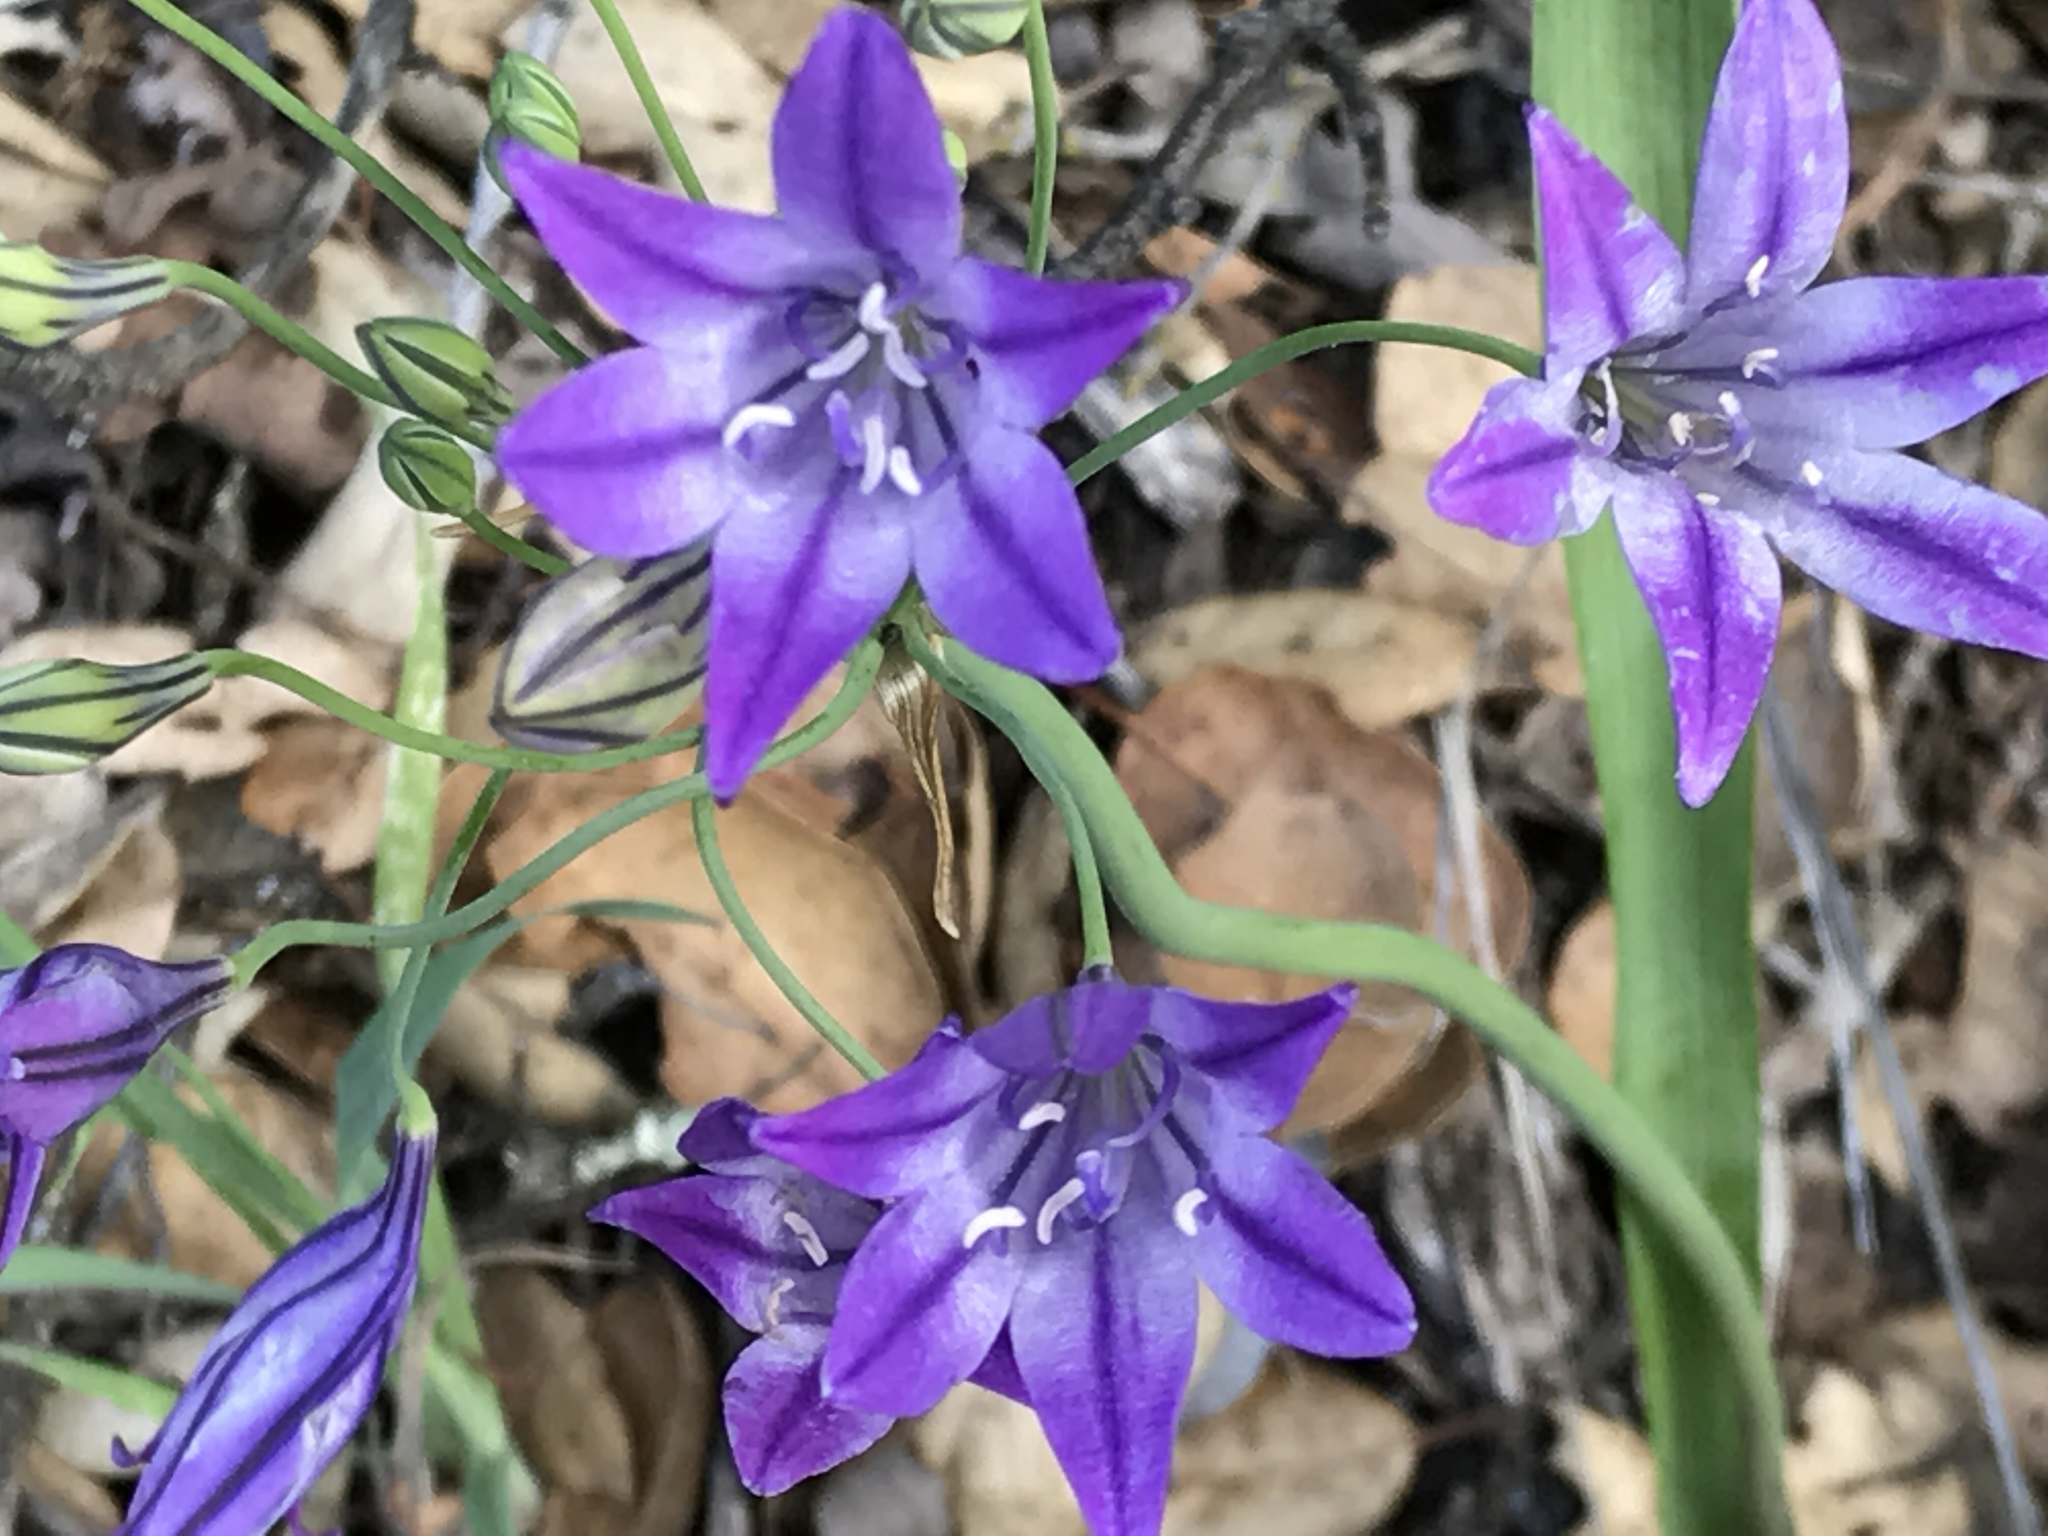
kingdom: Plantae
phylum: Tracheophyta
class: Liliopsida
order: Asparagales
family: Asparagaceae
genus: Triteleia
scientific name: Triteleia laxa
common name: Triplet-lily
